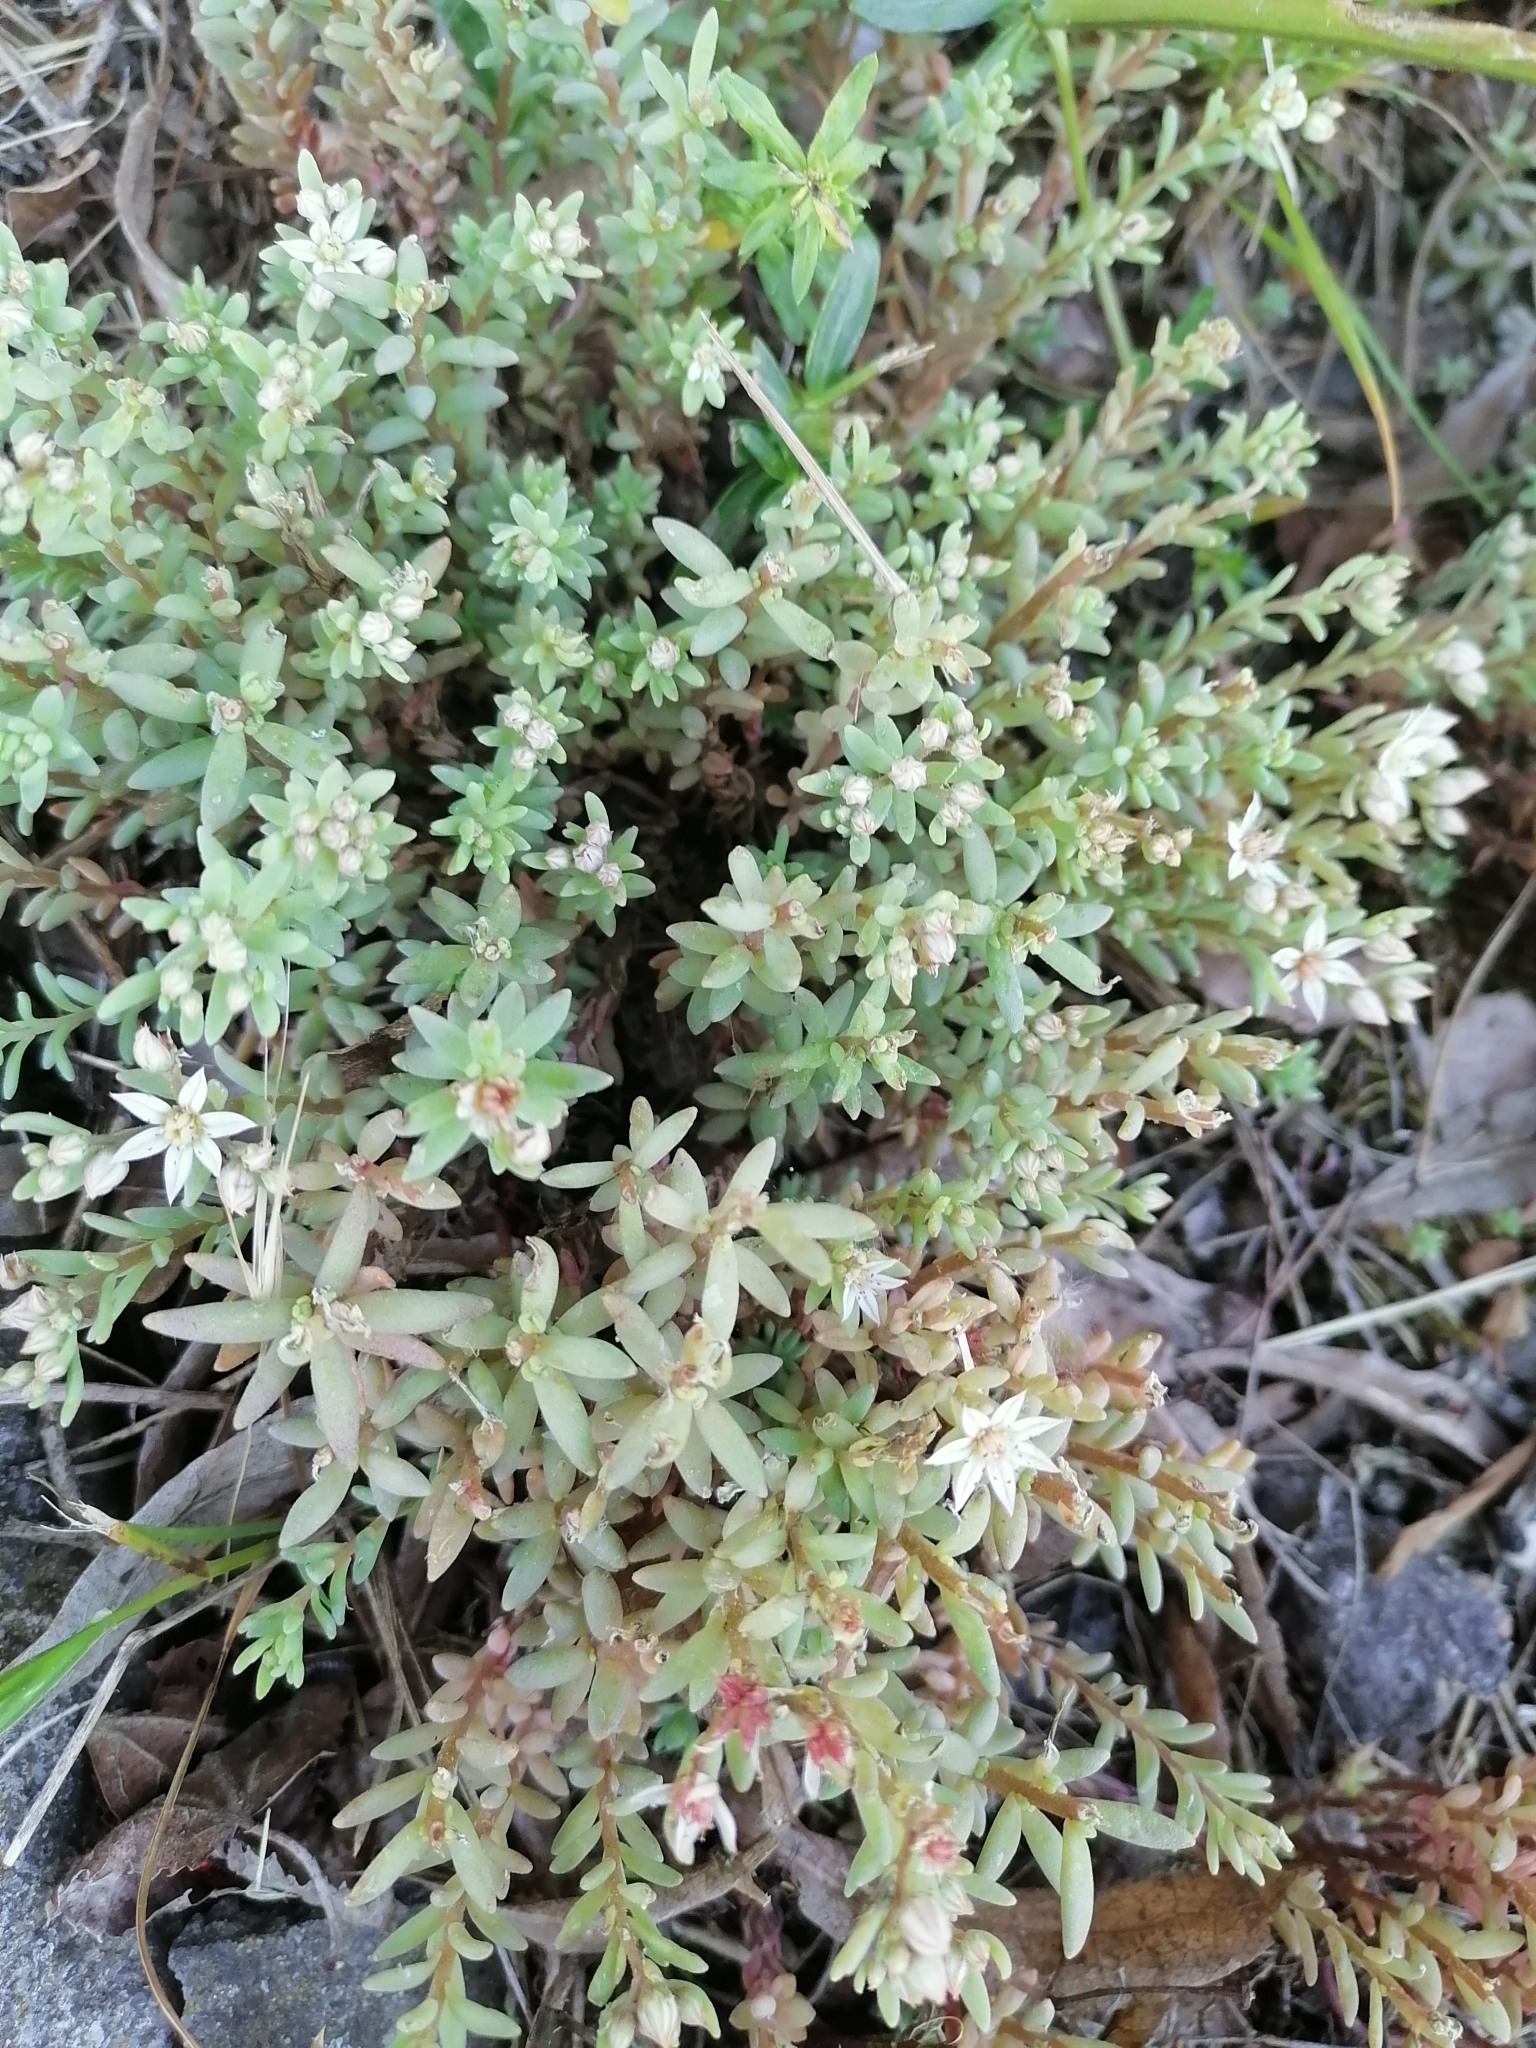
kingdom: Plantae
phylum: Tracheophyta
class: Magnoliopsida
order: Saxifragales
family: Crassulaceae
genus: Sedum
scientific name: Sedum hispanicum
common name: Spanish stonecrop
